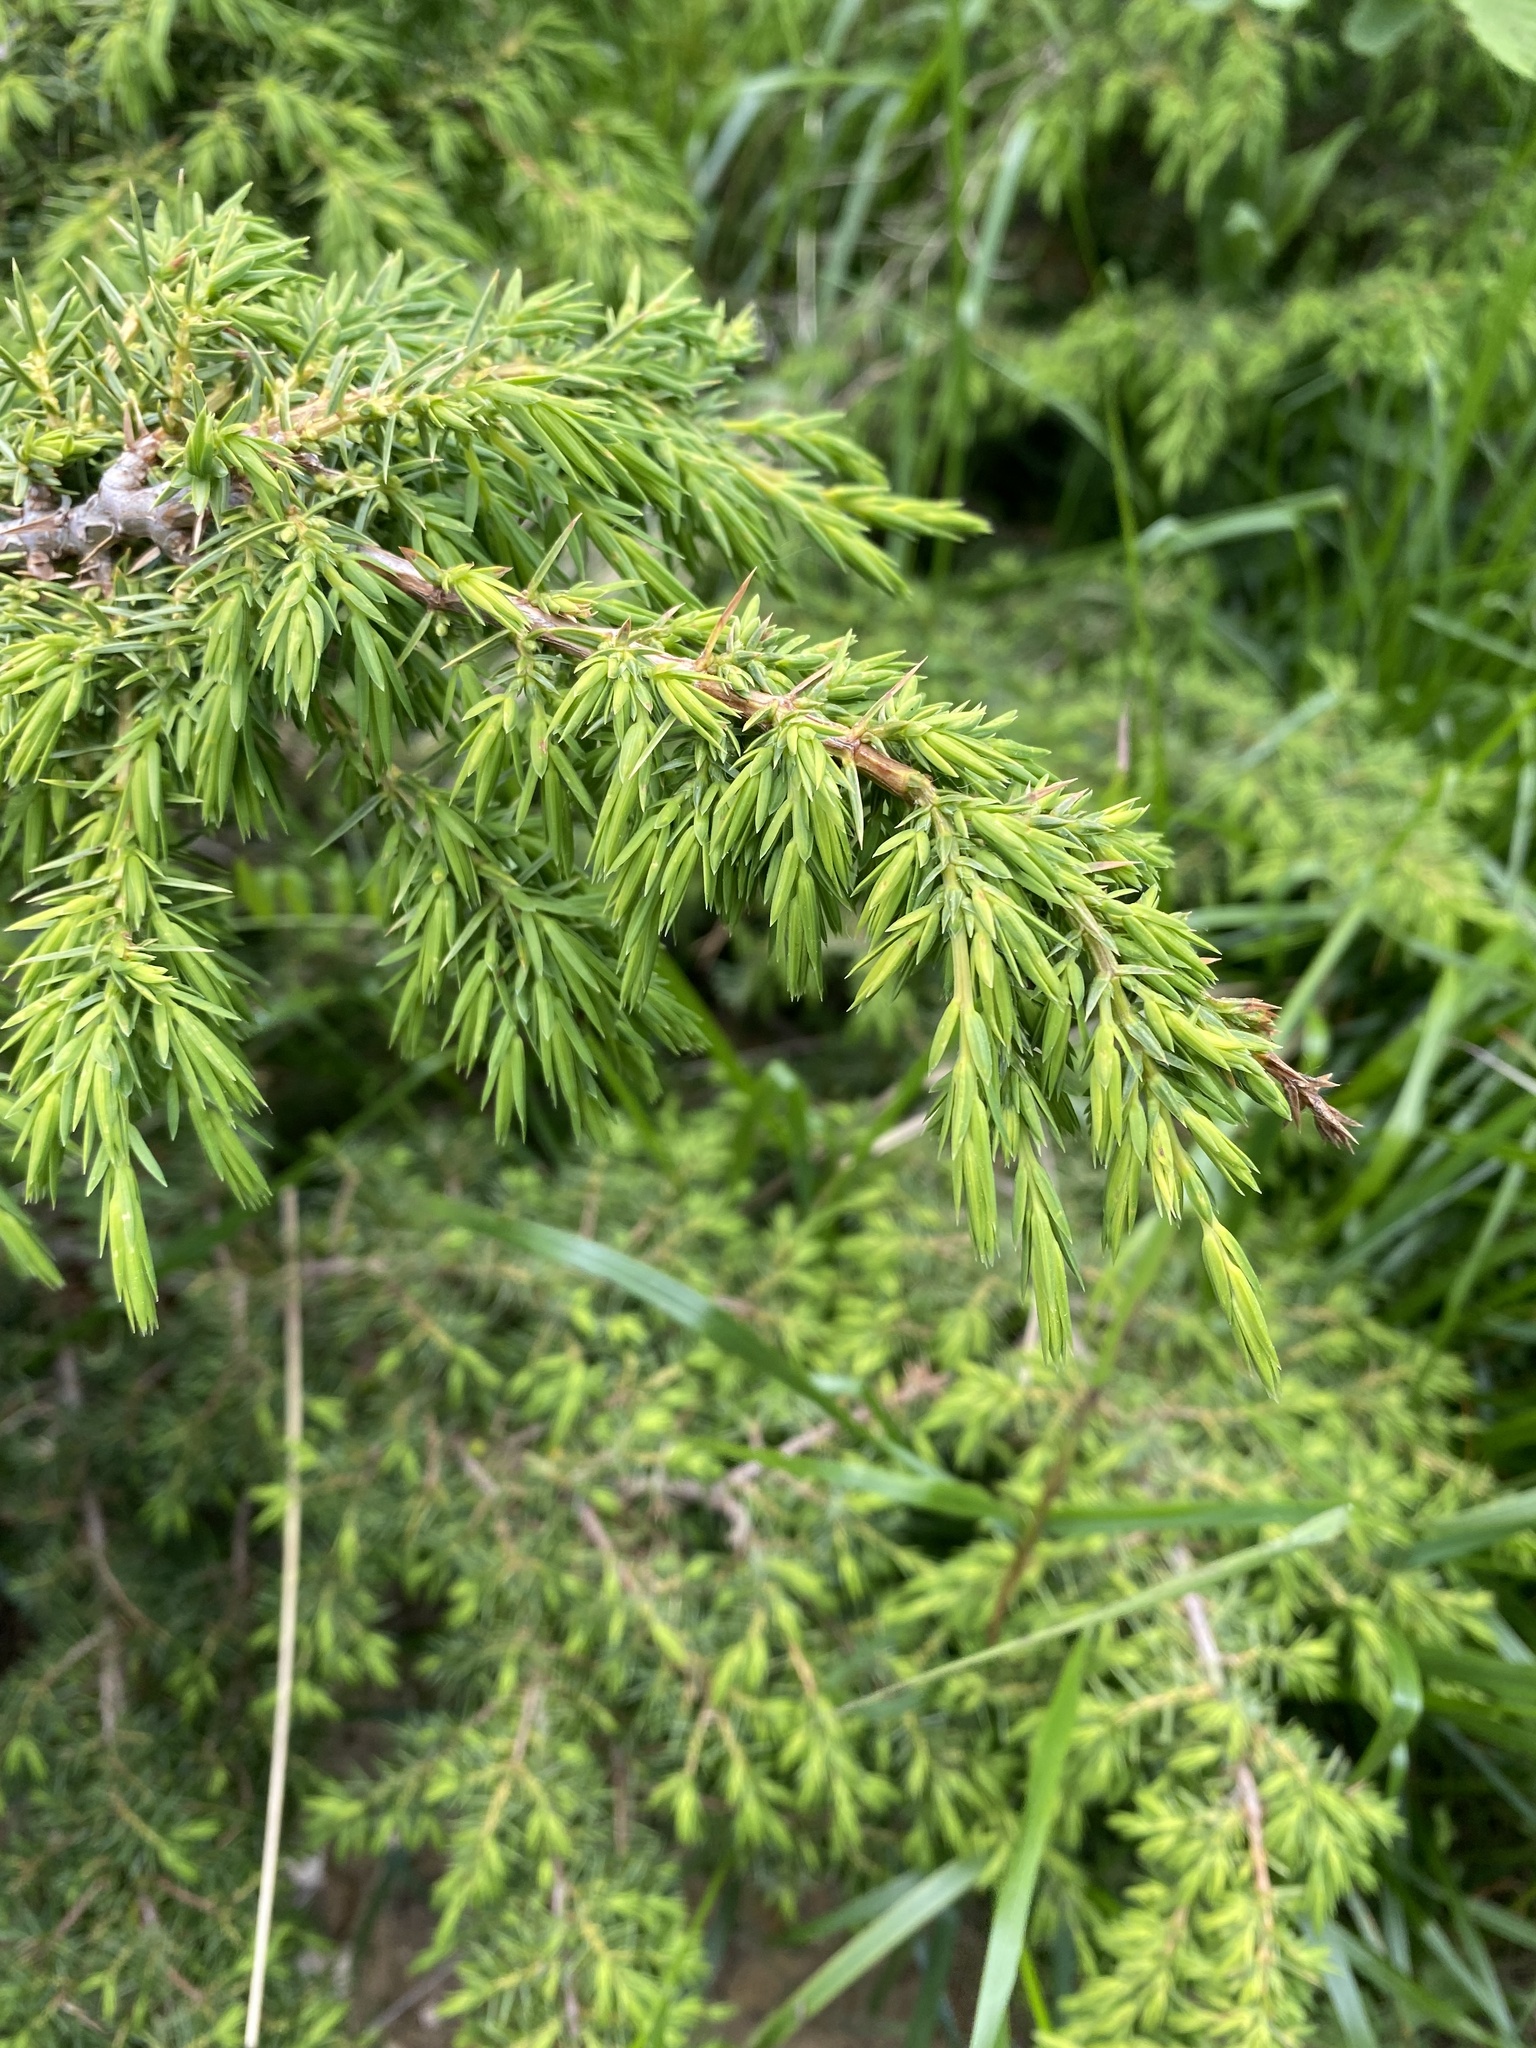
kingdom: Plantae
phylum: Tracheophyta
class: Pinopsida
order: Pinales
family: Cupressaceae
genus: Juniperus
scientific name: Juniperus communis
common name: Common juniper
